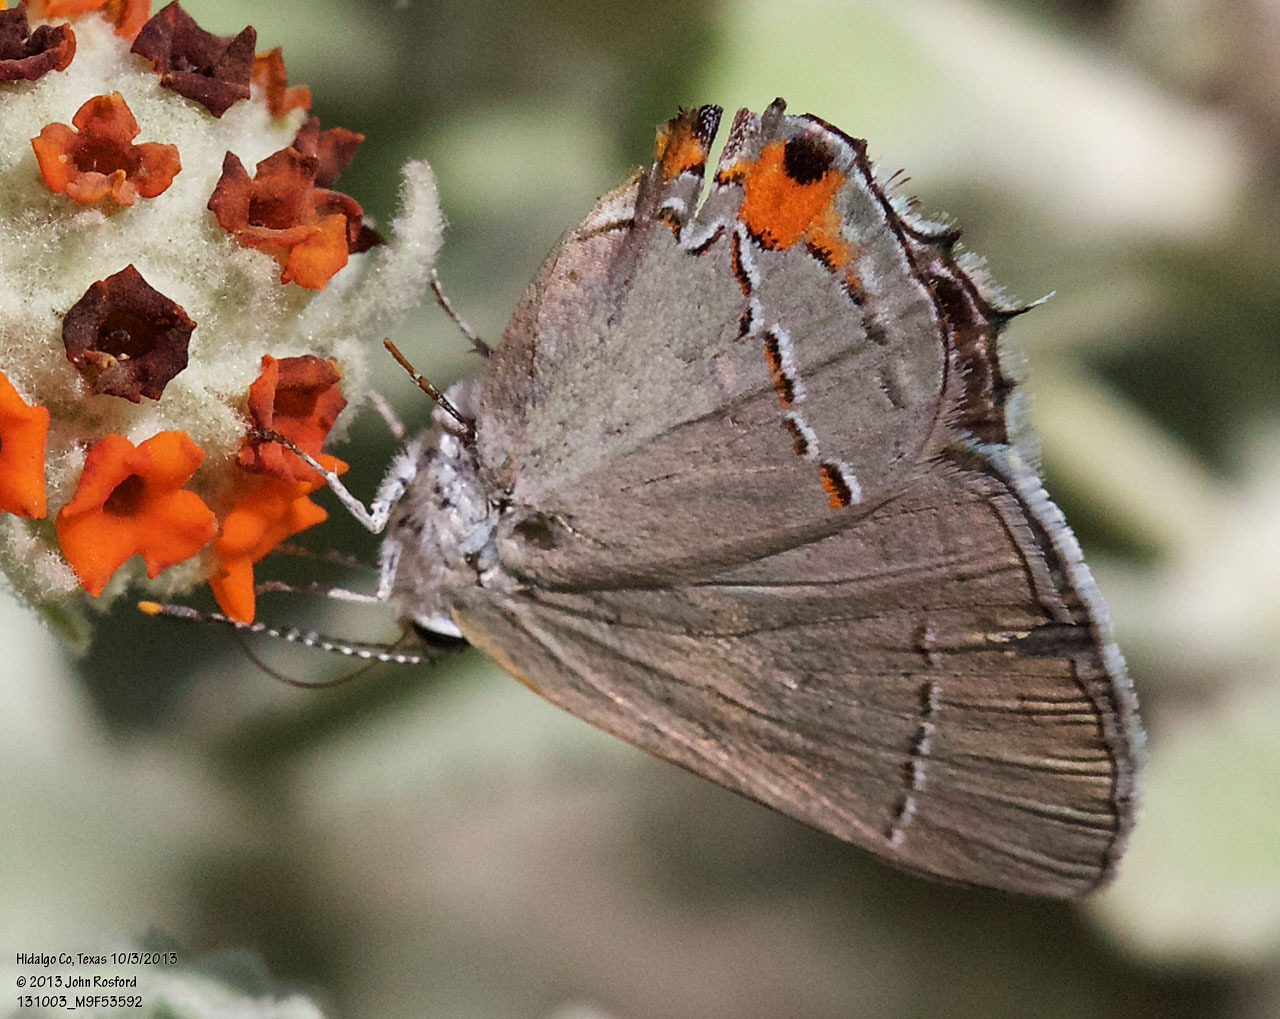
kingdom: Animalia
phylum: Arthropoda
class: Insecta
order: Lepidoptera
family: Lycaenidae
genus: Strymon
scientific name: Strymon melinus
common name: Gray hairstreak
